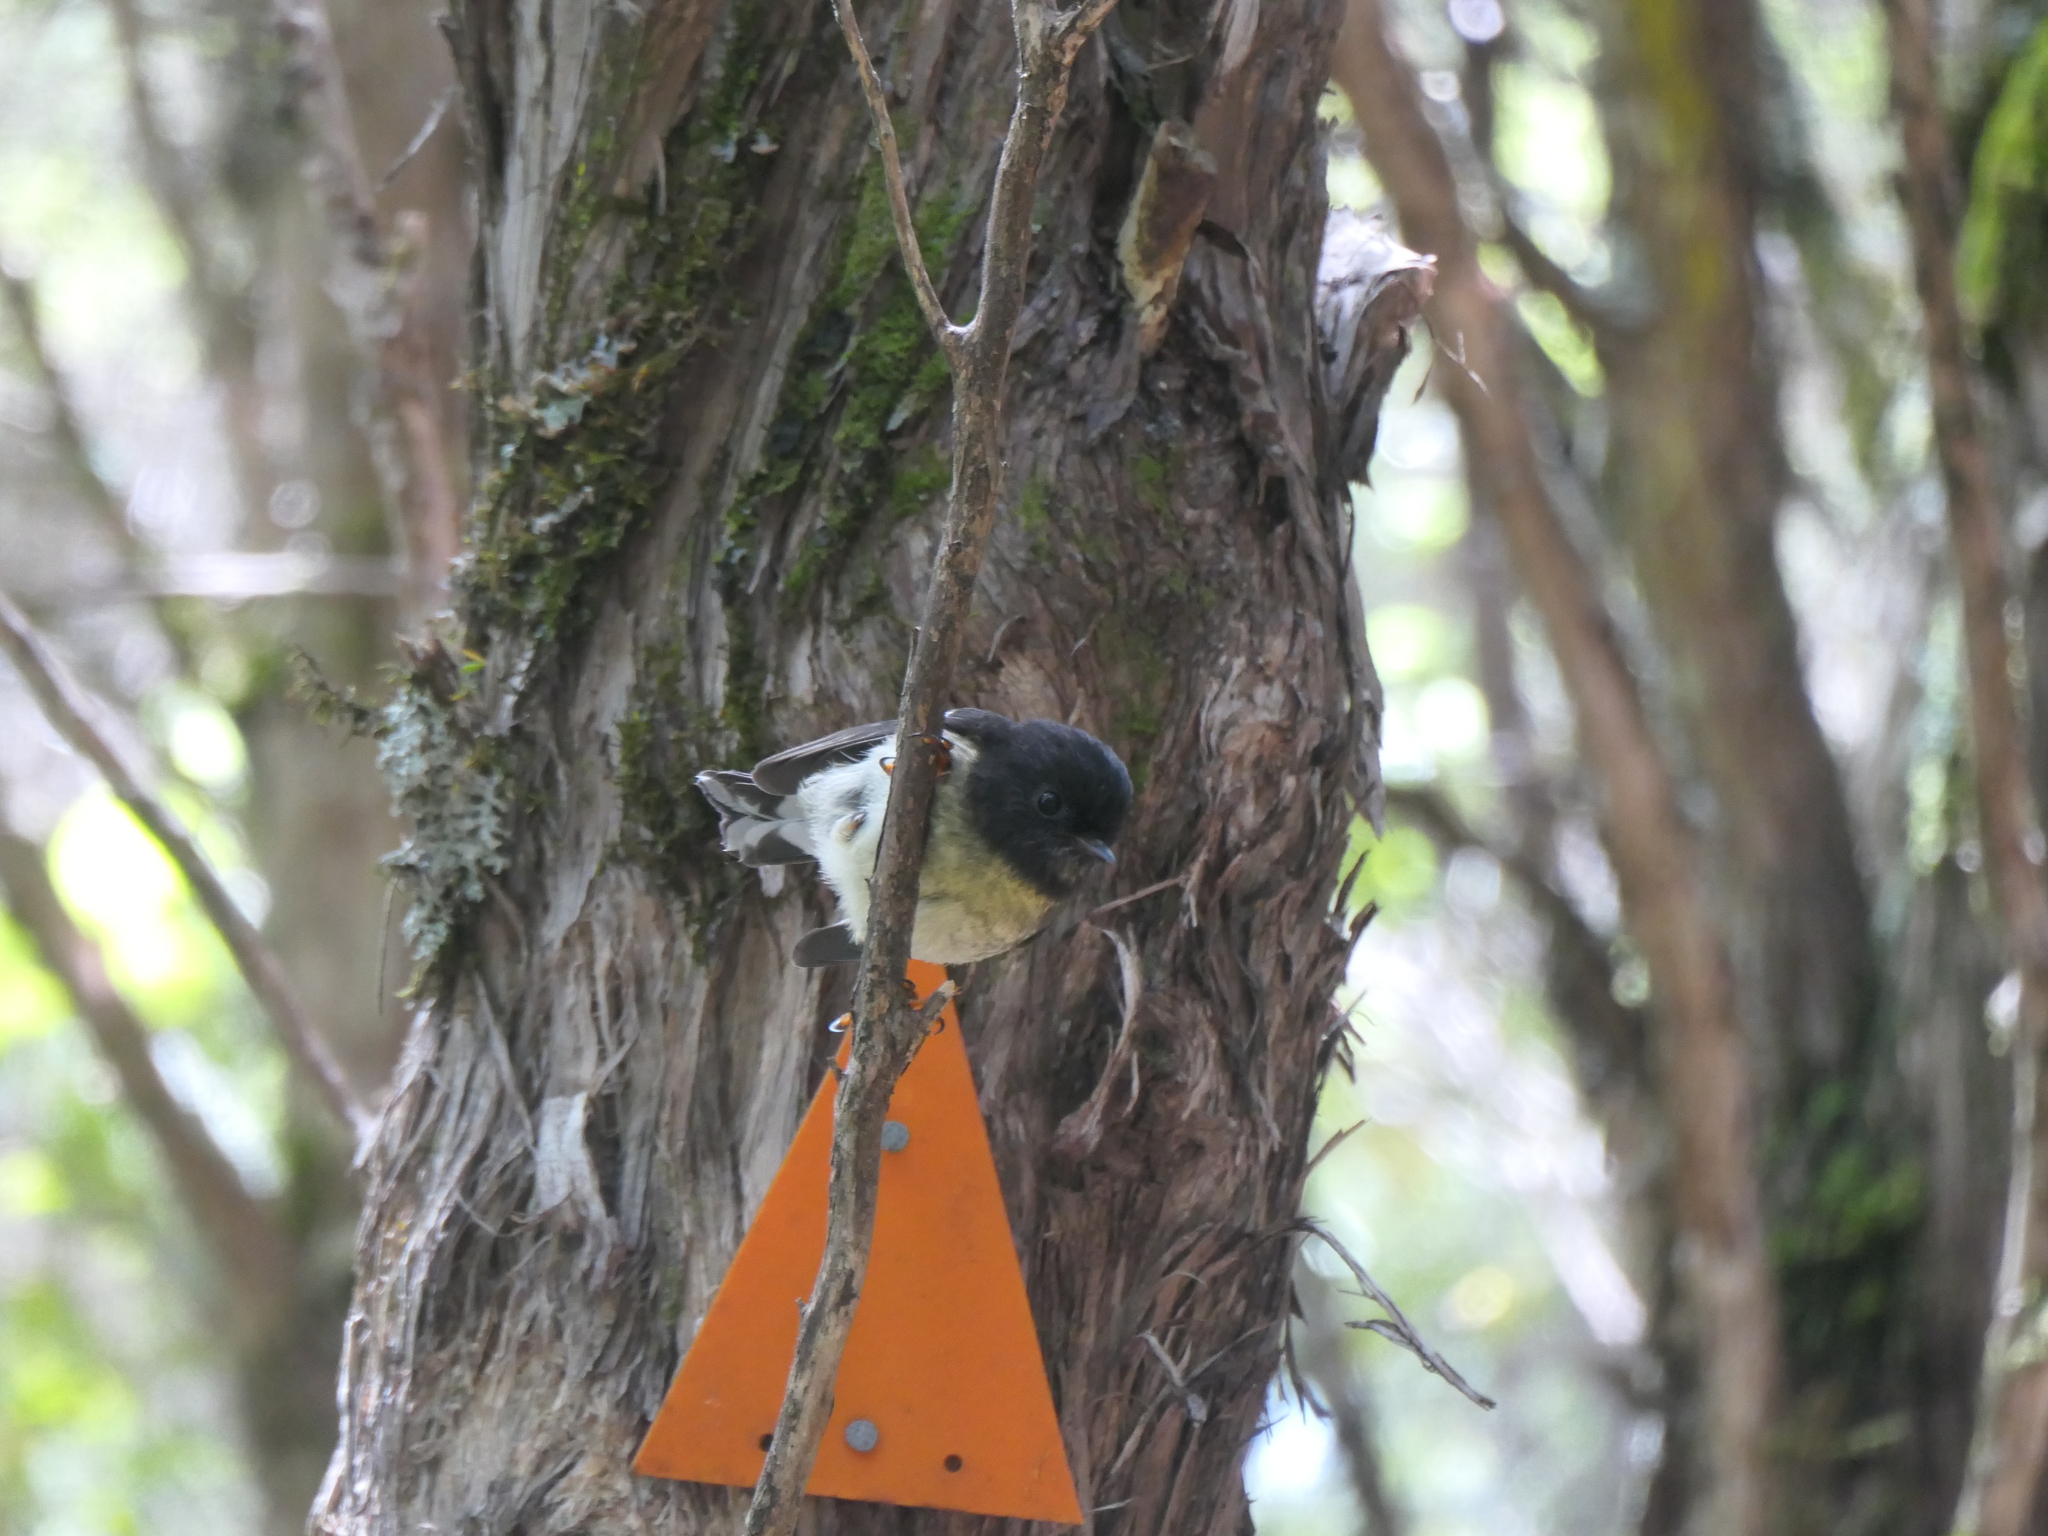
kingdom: Animalia
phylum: Chordata
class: Aves
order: Passeriformes
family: Petroicidae
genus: Petroica
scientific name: Petroica macrocephala
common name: Tomtit
